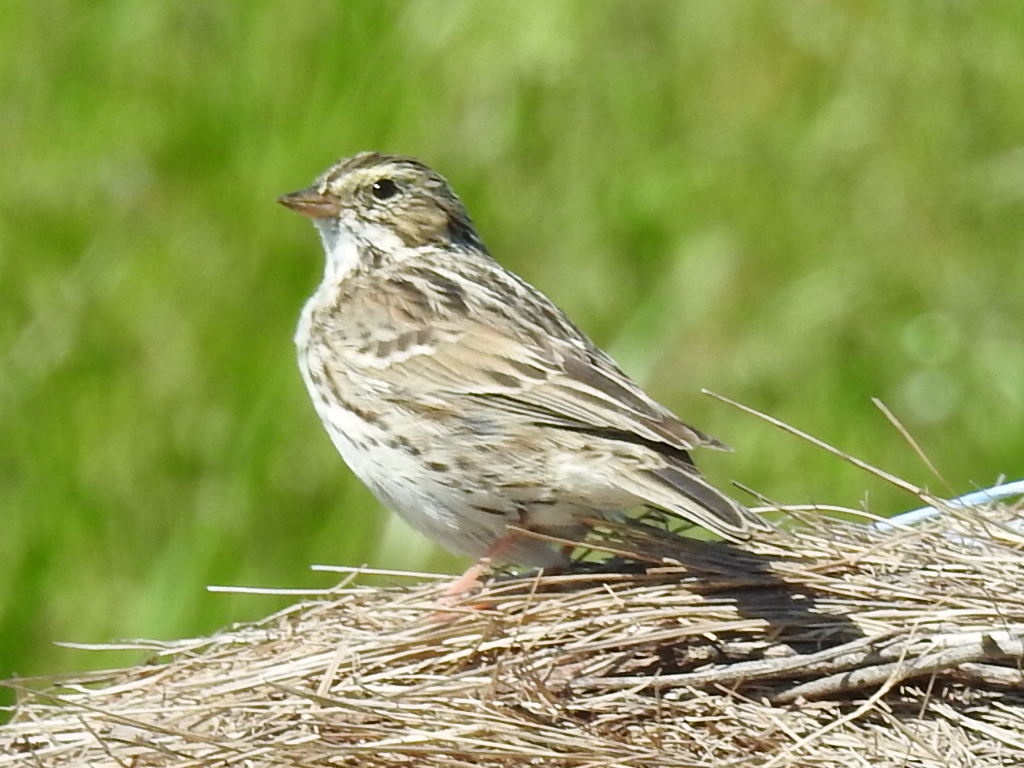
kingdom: Animalia
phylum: Chordata
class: Aves
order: Passeriformes
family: Passerellidae
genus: Passerculus
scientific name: Passerculus sandwichensis
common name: Savannah sparrow
